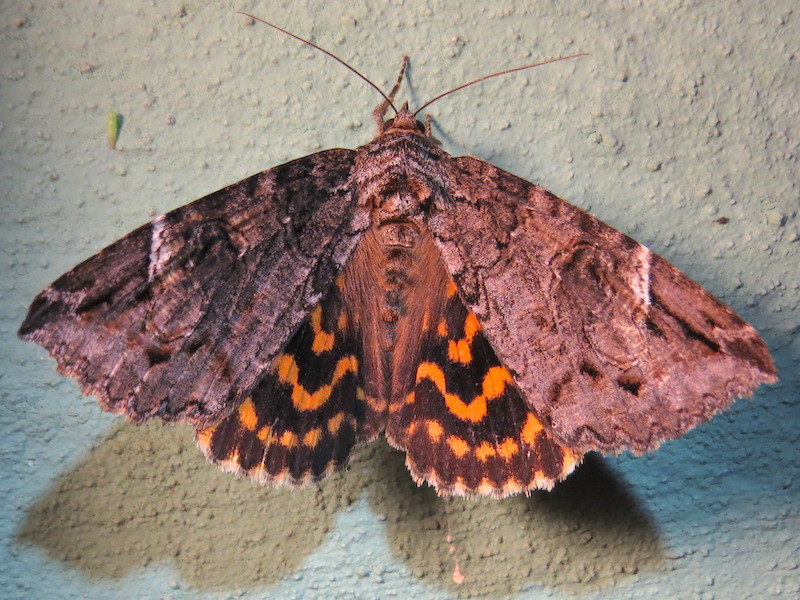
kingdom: Animalia
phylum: Arthropoda
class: Insecta
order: Lepidoptera
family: Erebidae
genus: Euparthenos
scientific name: Euparthenos nubilis
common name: Locust underwing
